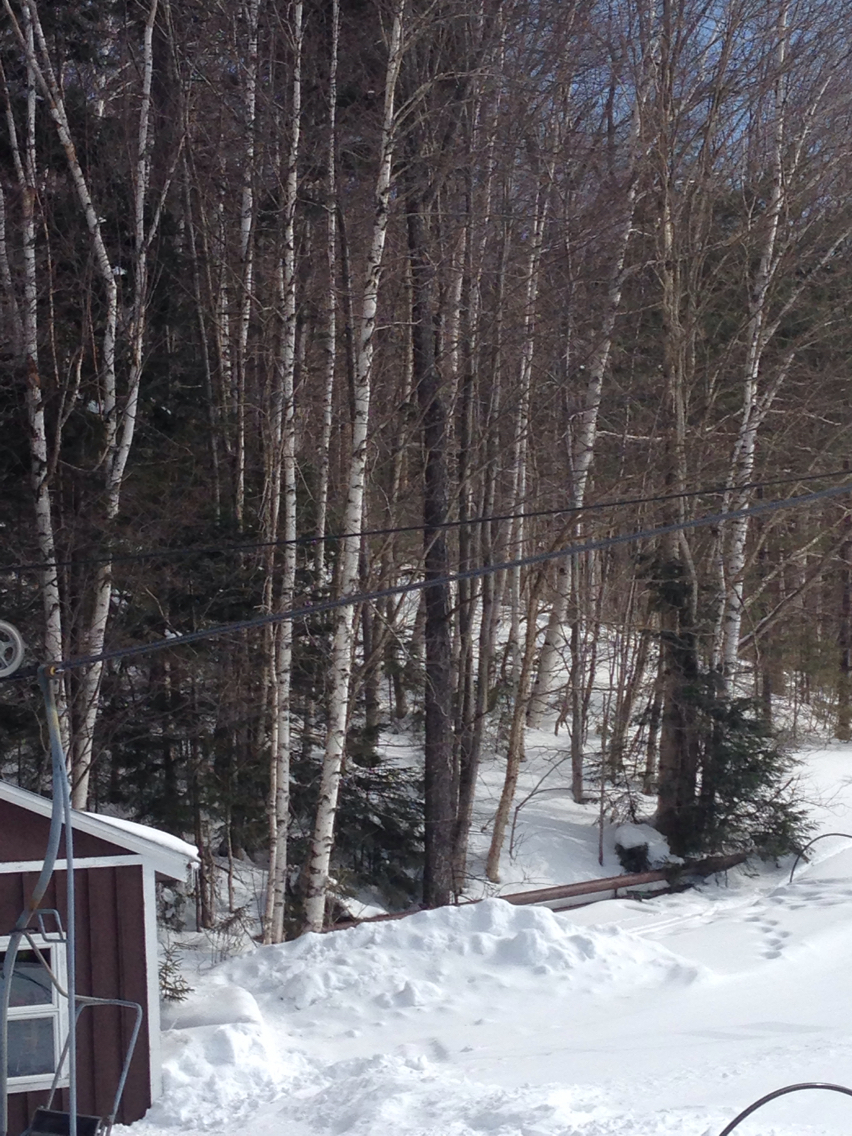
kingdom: Plantae
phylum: Tracheophyta
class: Magnoliopsida
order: Fagales
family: Betulaceae
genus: Betula
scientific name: Betula papyrifera
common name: Paper birch
